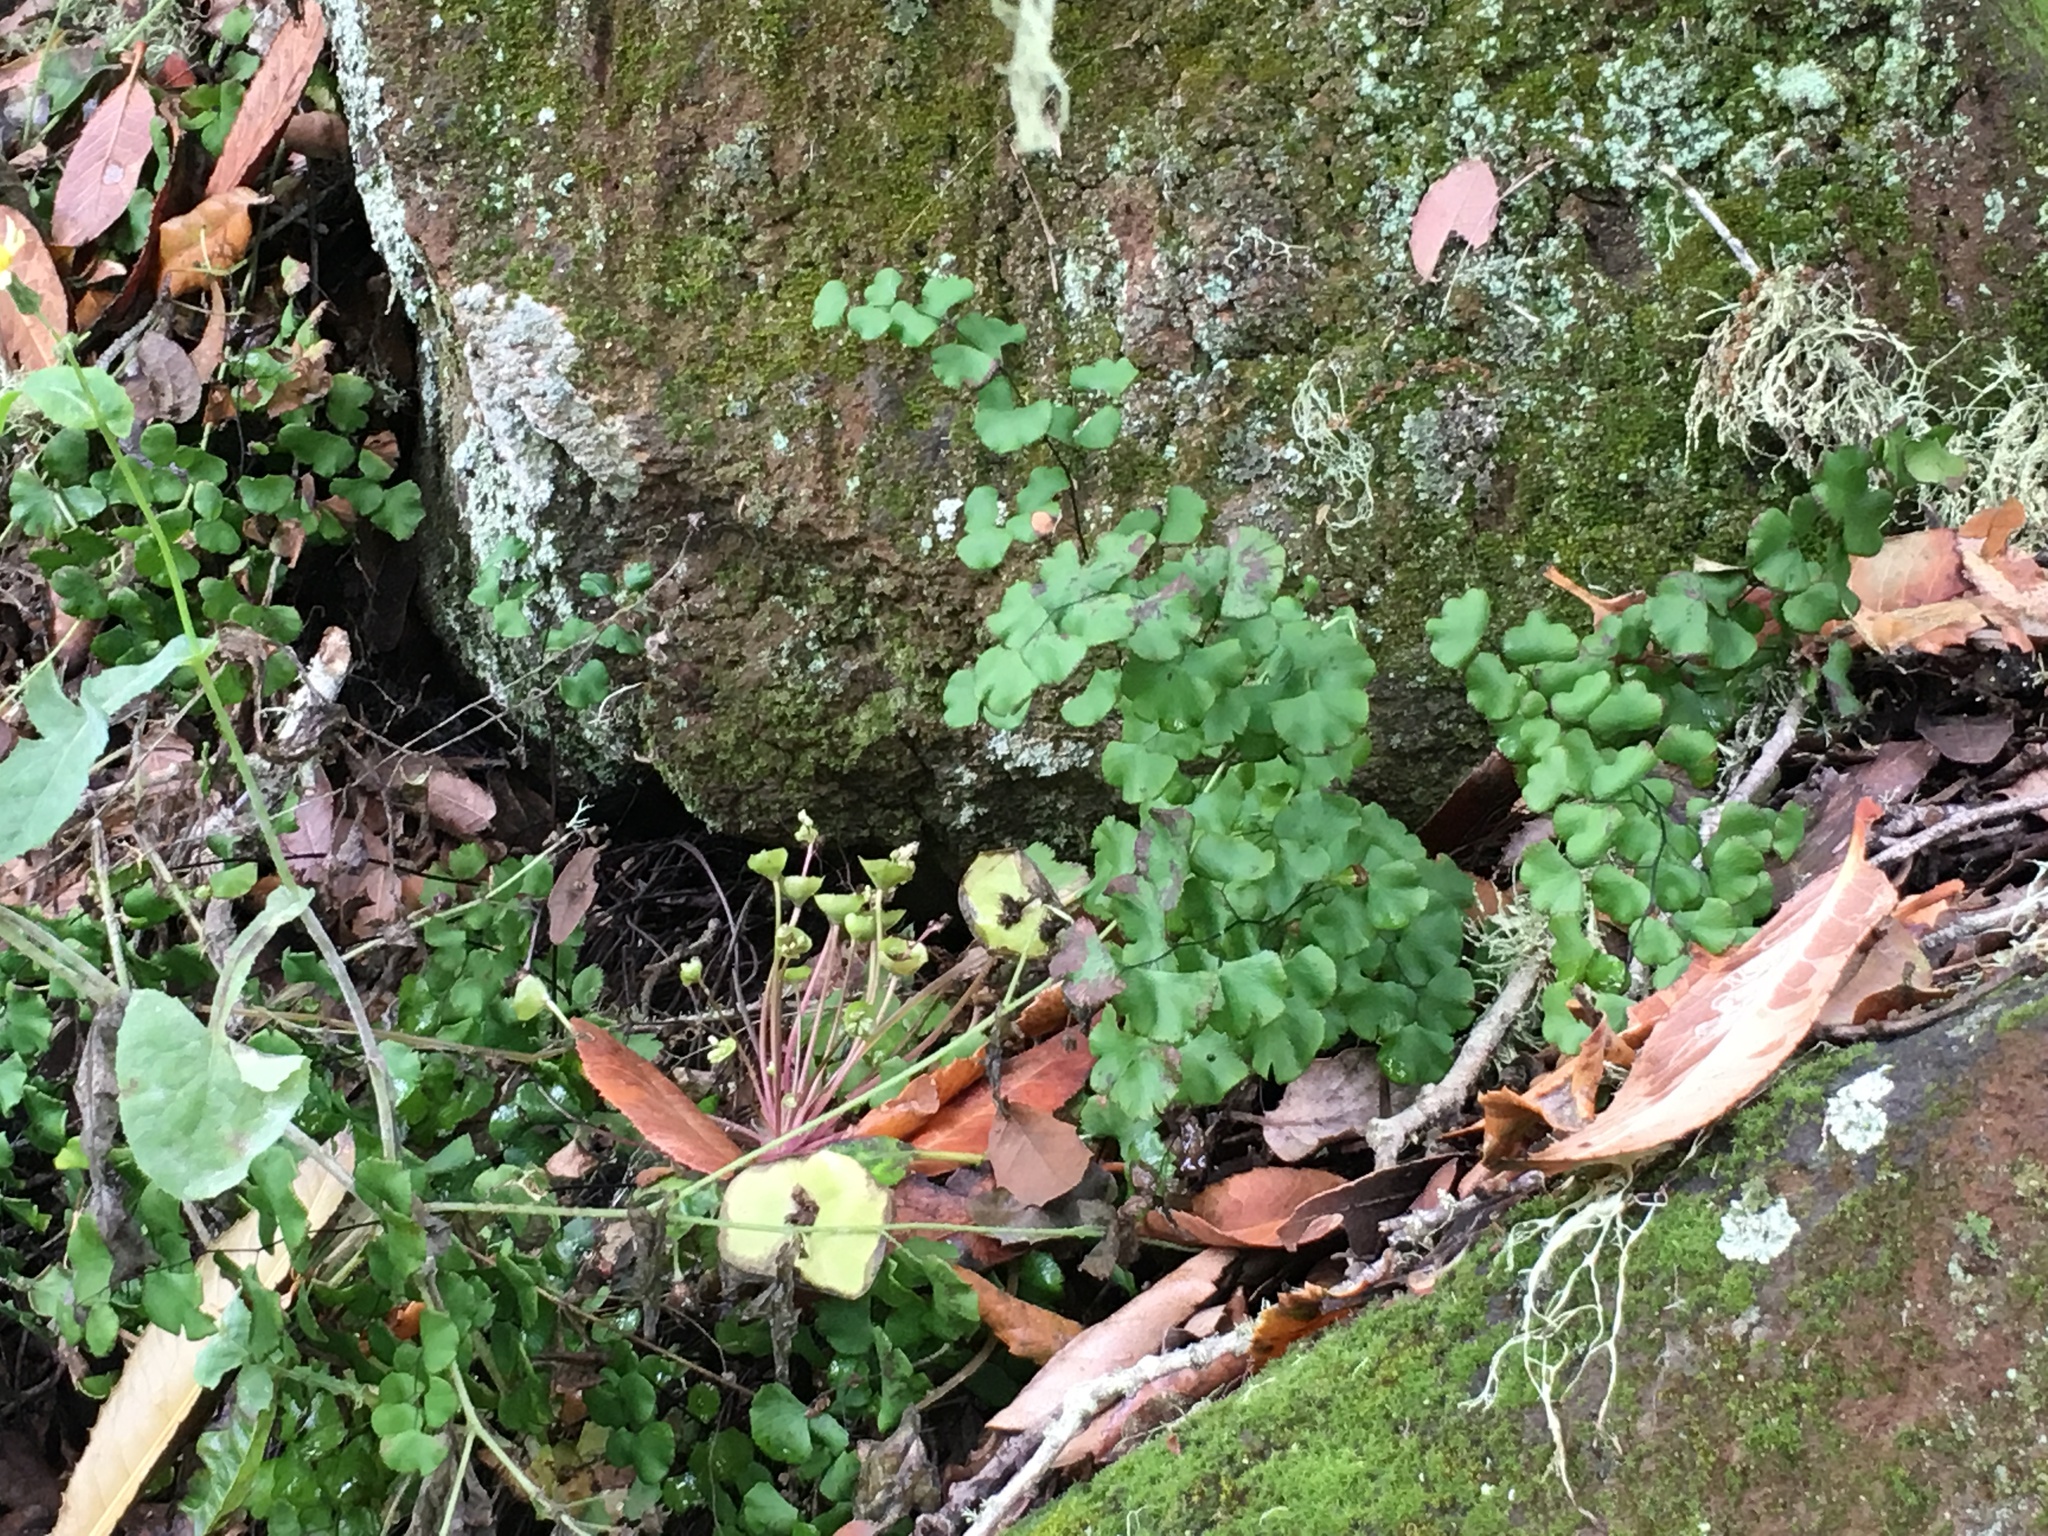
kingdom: Plantae
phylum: Tracheophyta
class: Polypodiopsida
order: Polypodiales
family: Pteridaceae
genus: Adiantum
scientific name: Adiantum jordanii
